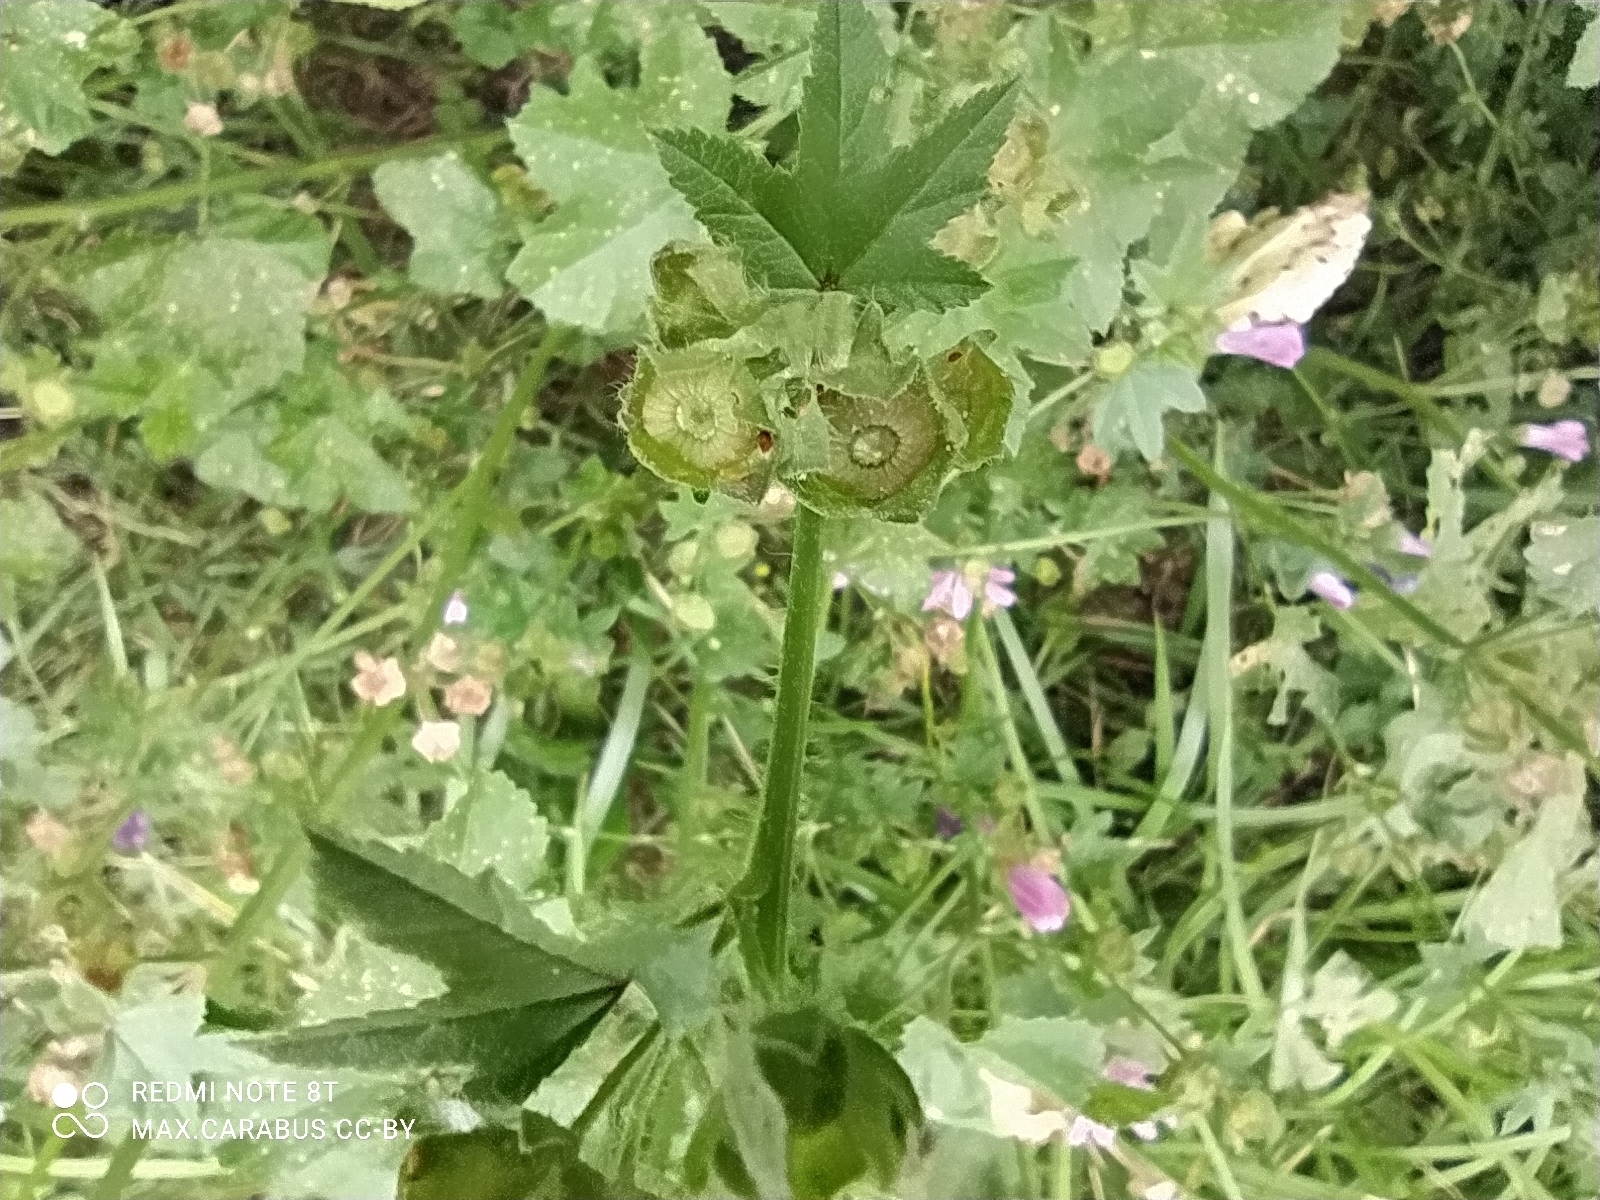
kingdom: Plantae
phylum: Tracheophyta
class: Magnoliopsida
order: Malvales
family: Malvaceae
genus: Malva
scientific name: Malva sylvestris
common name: Common mallow
